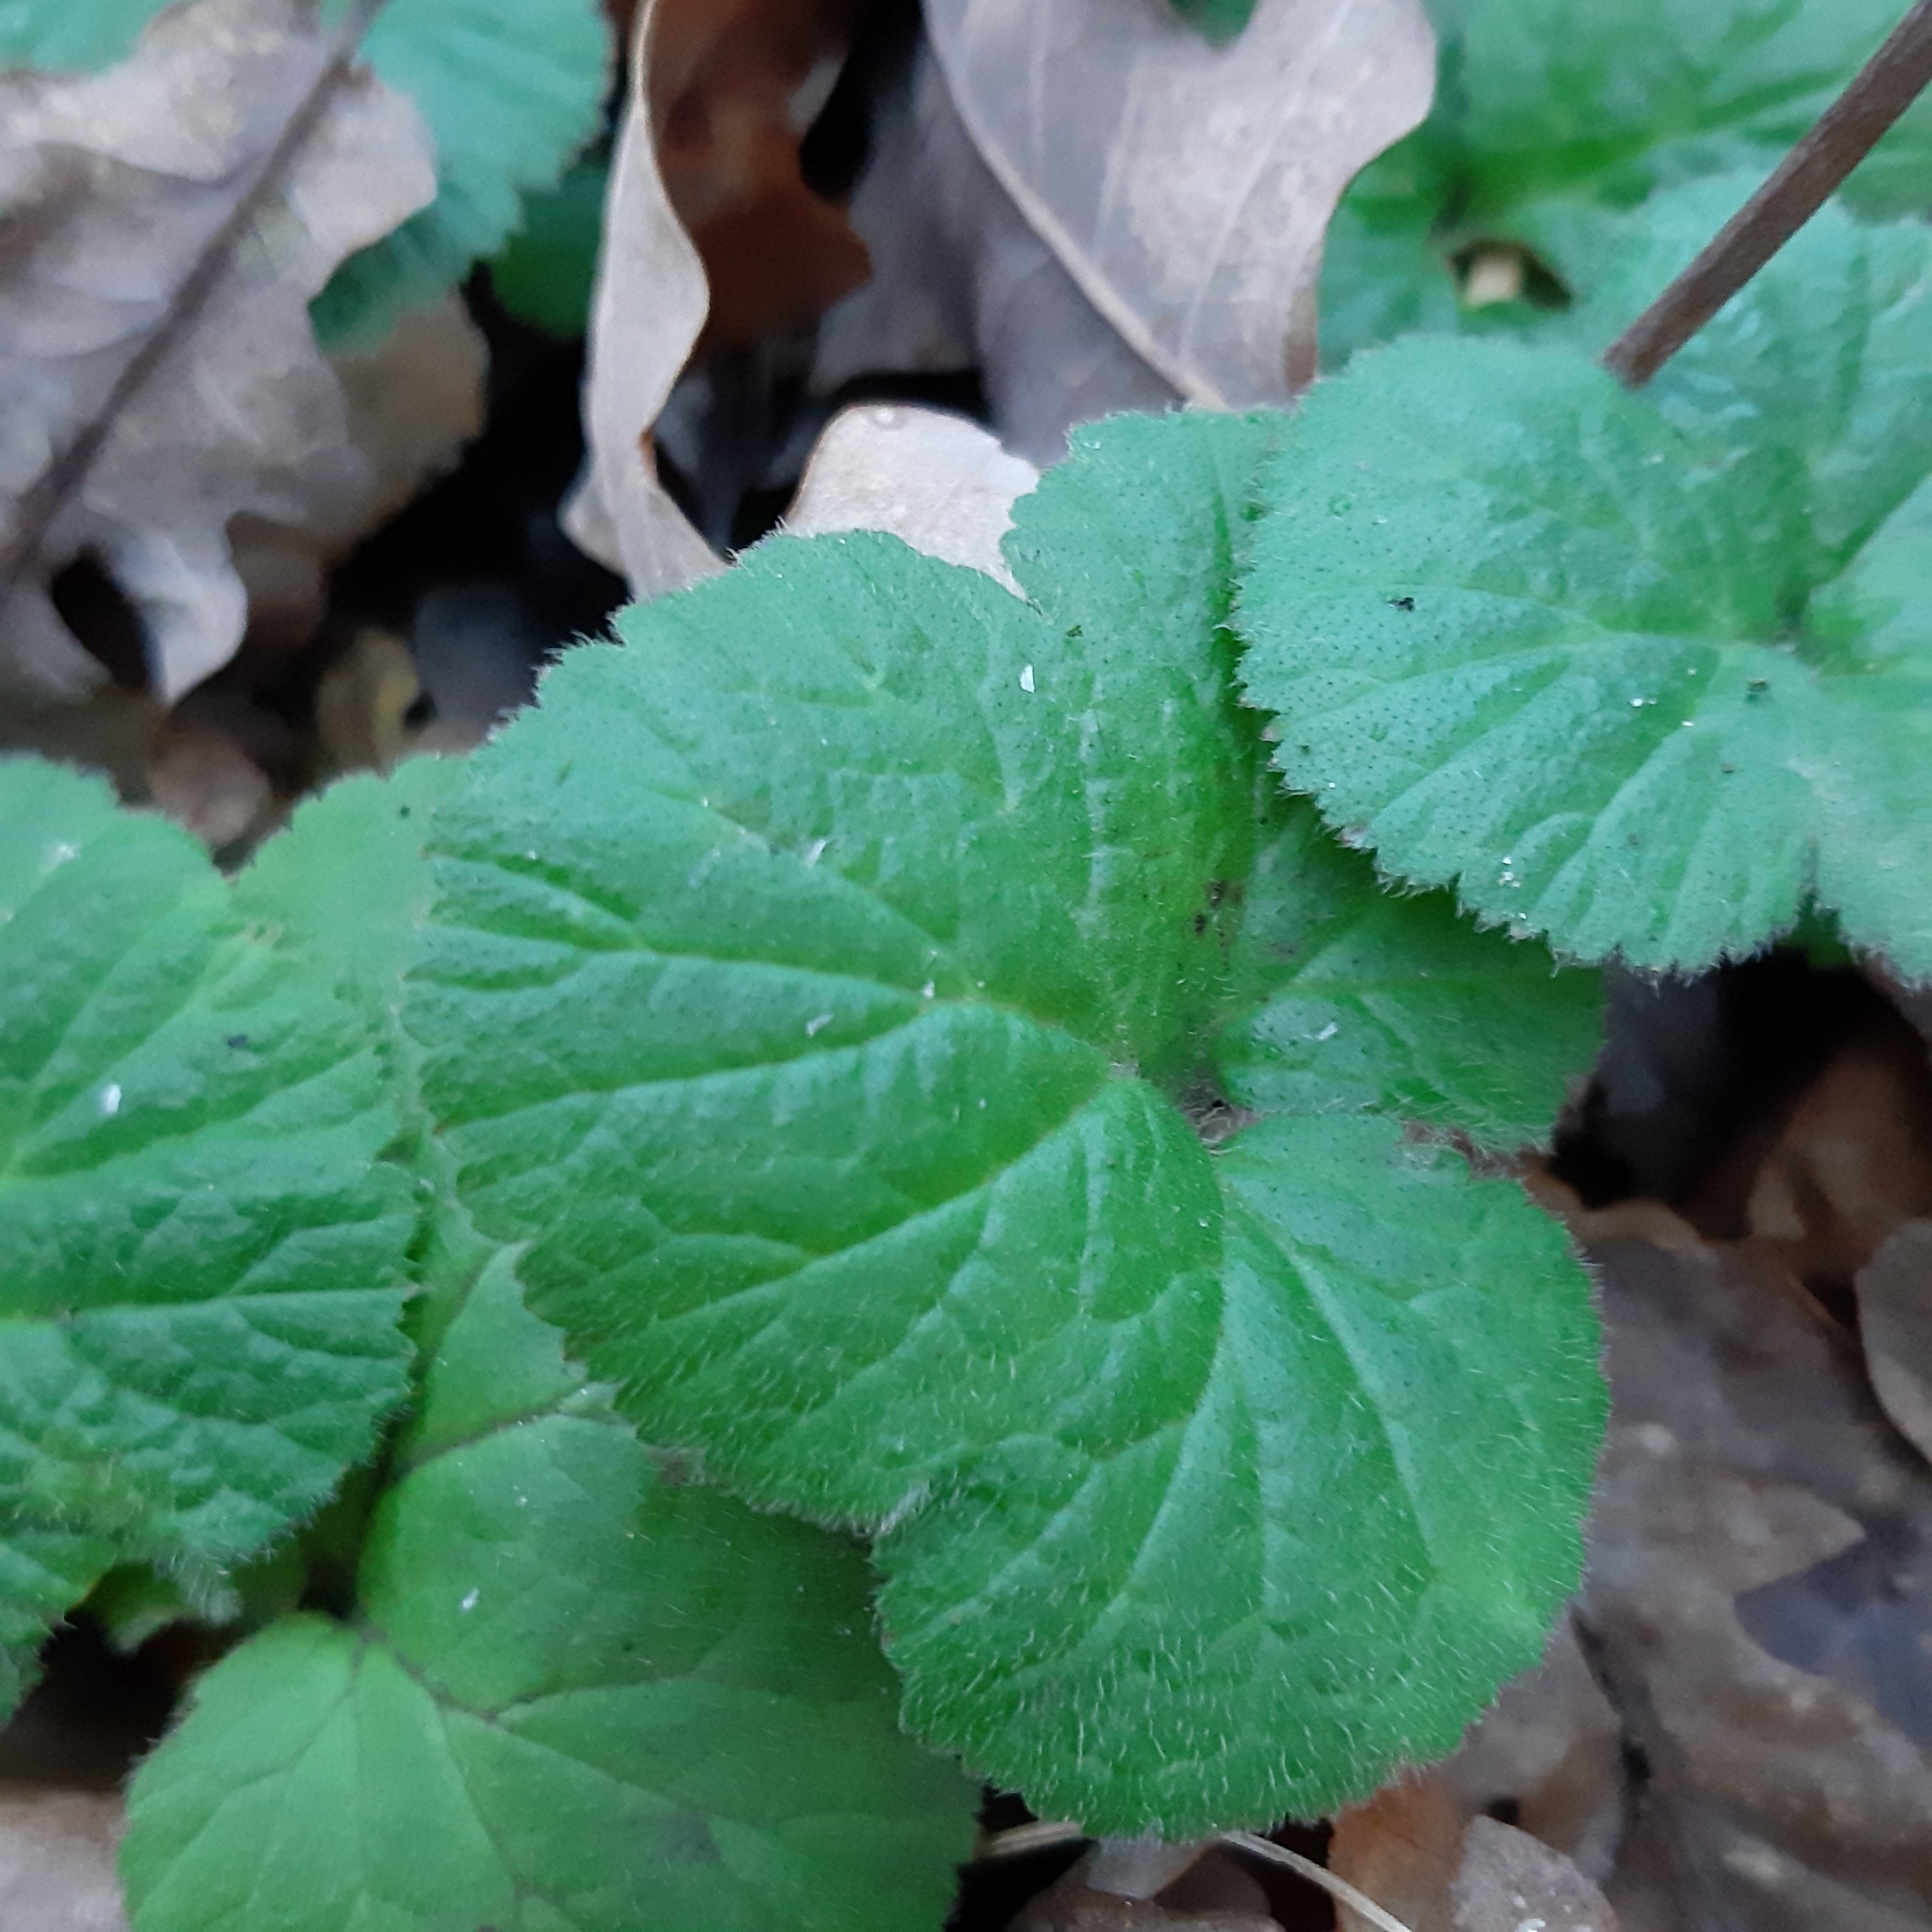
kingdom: Plantae
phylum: Tracheophyta
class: Magnoliopsida
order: Rosales
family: Rosaceae
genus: Geum
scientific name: Geum urbanum
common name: Wood avens
